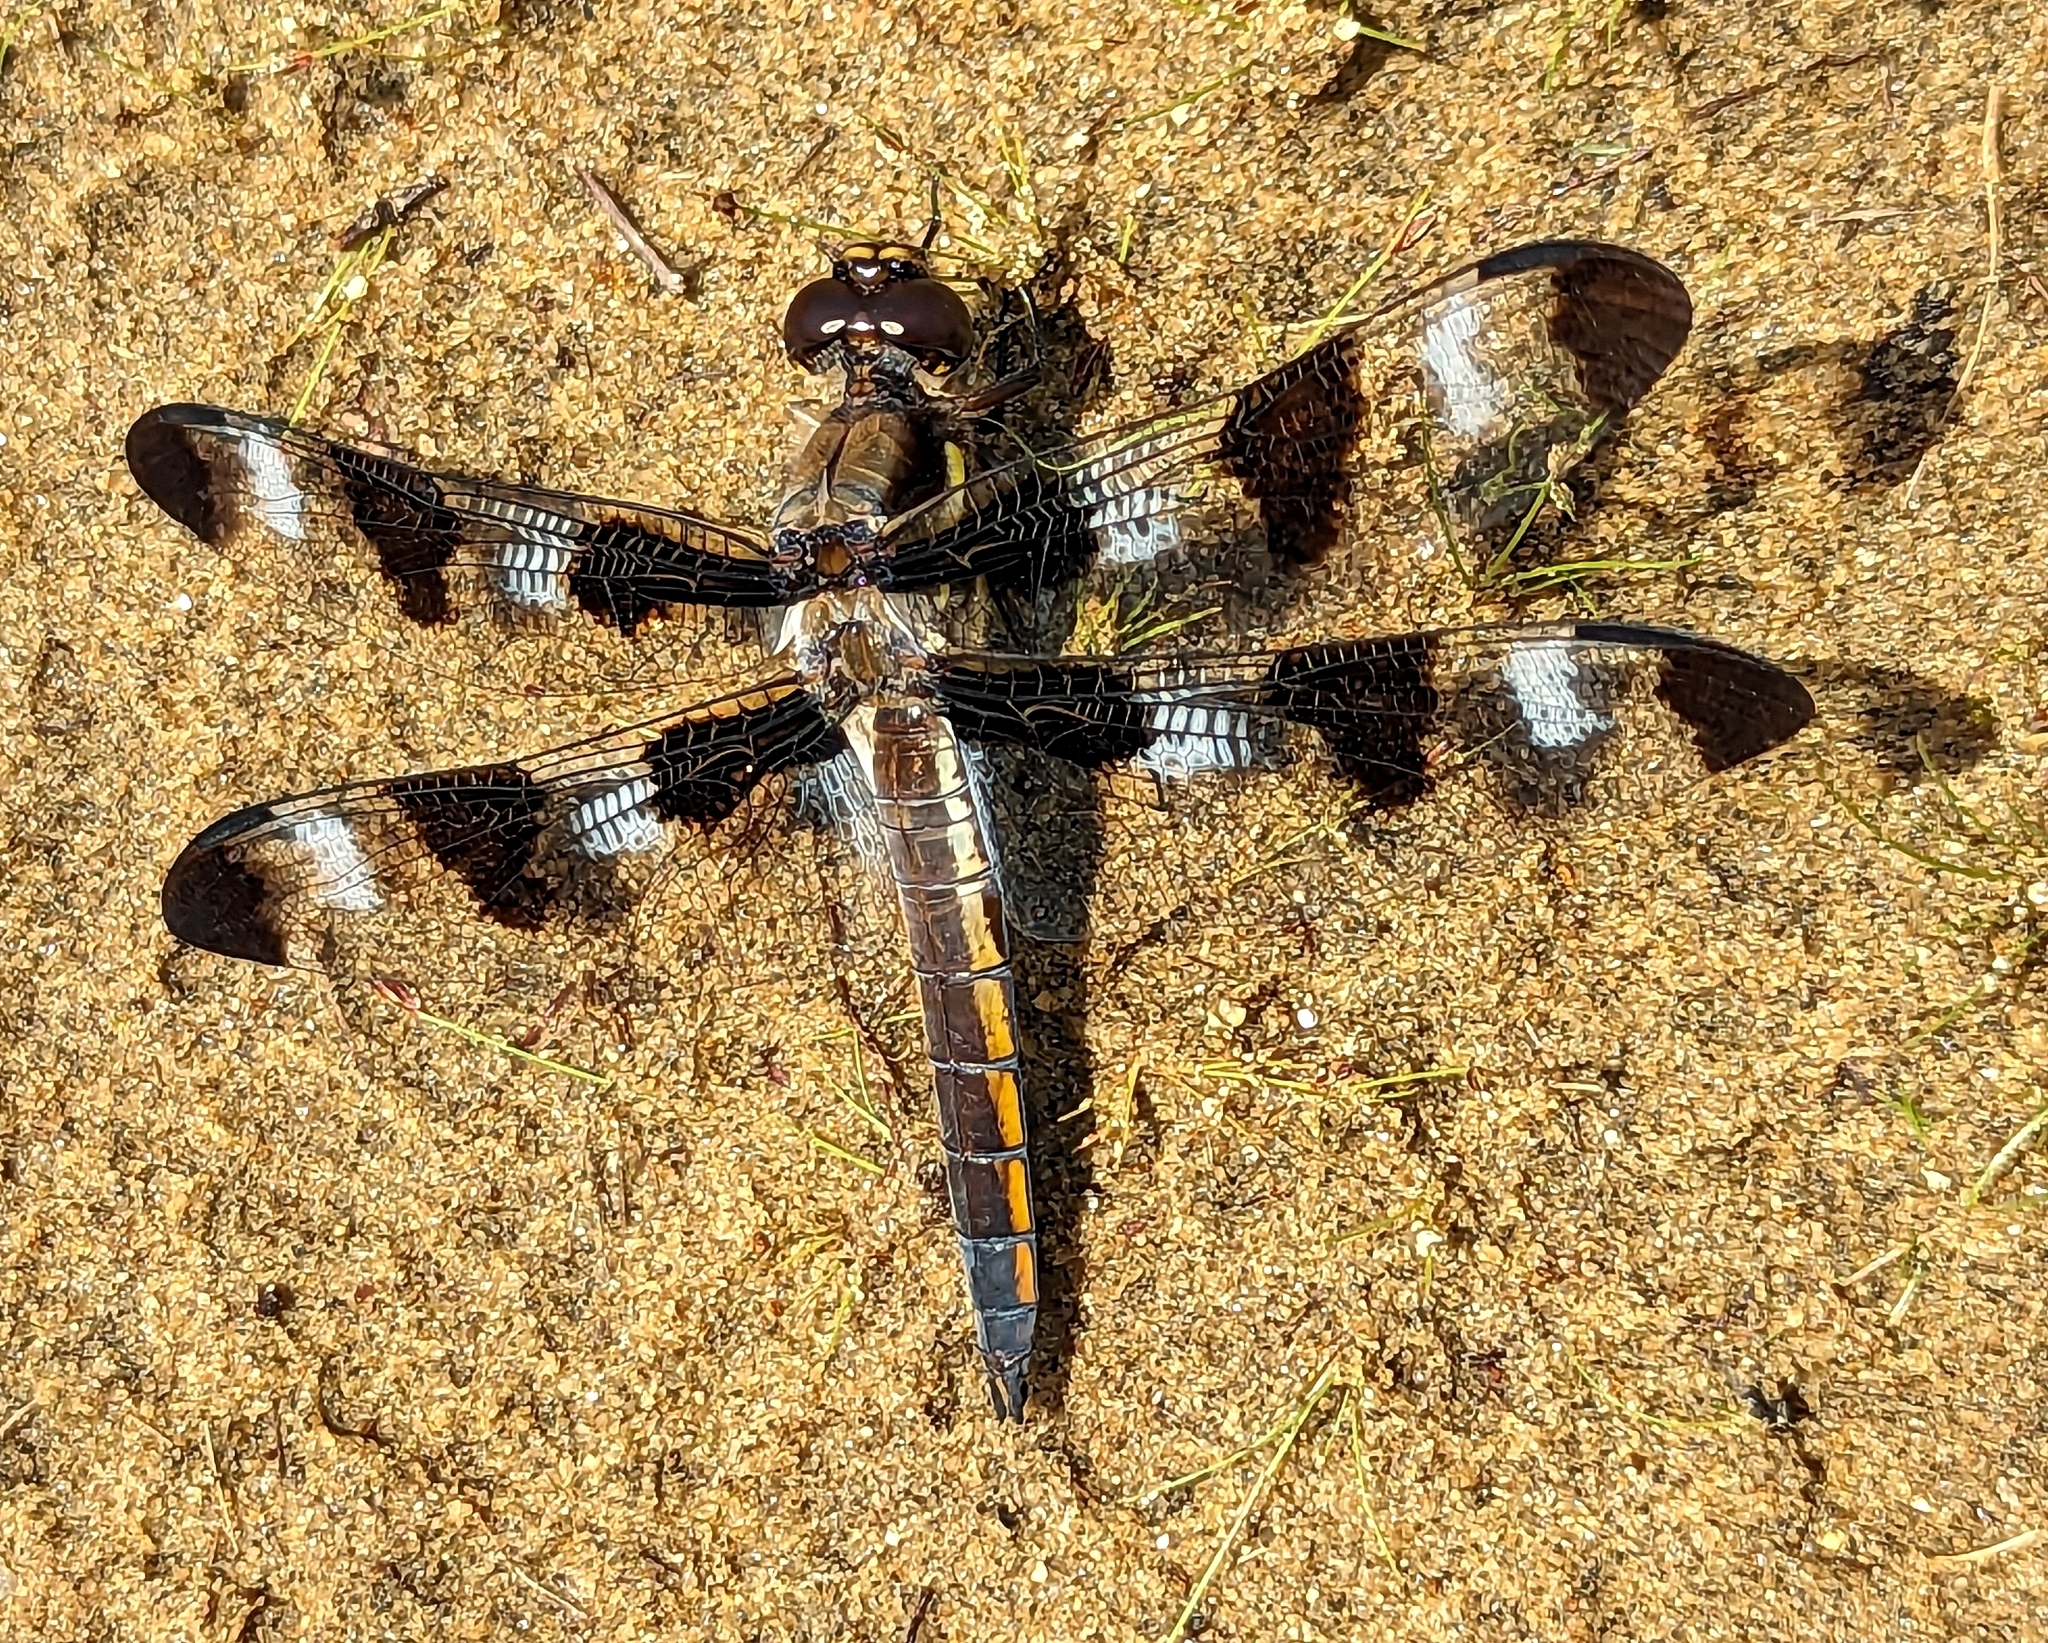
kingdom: Animalia
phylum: Arthropoda
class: Insecta
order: Odonata
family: Libellulidae
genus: Libellula
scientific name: Libellula pulchella
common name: Twelve-spotted skimmer
